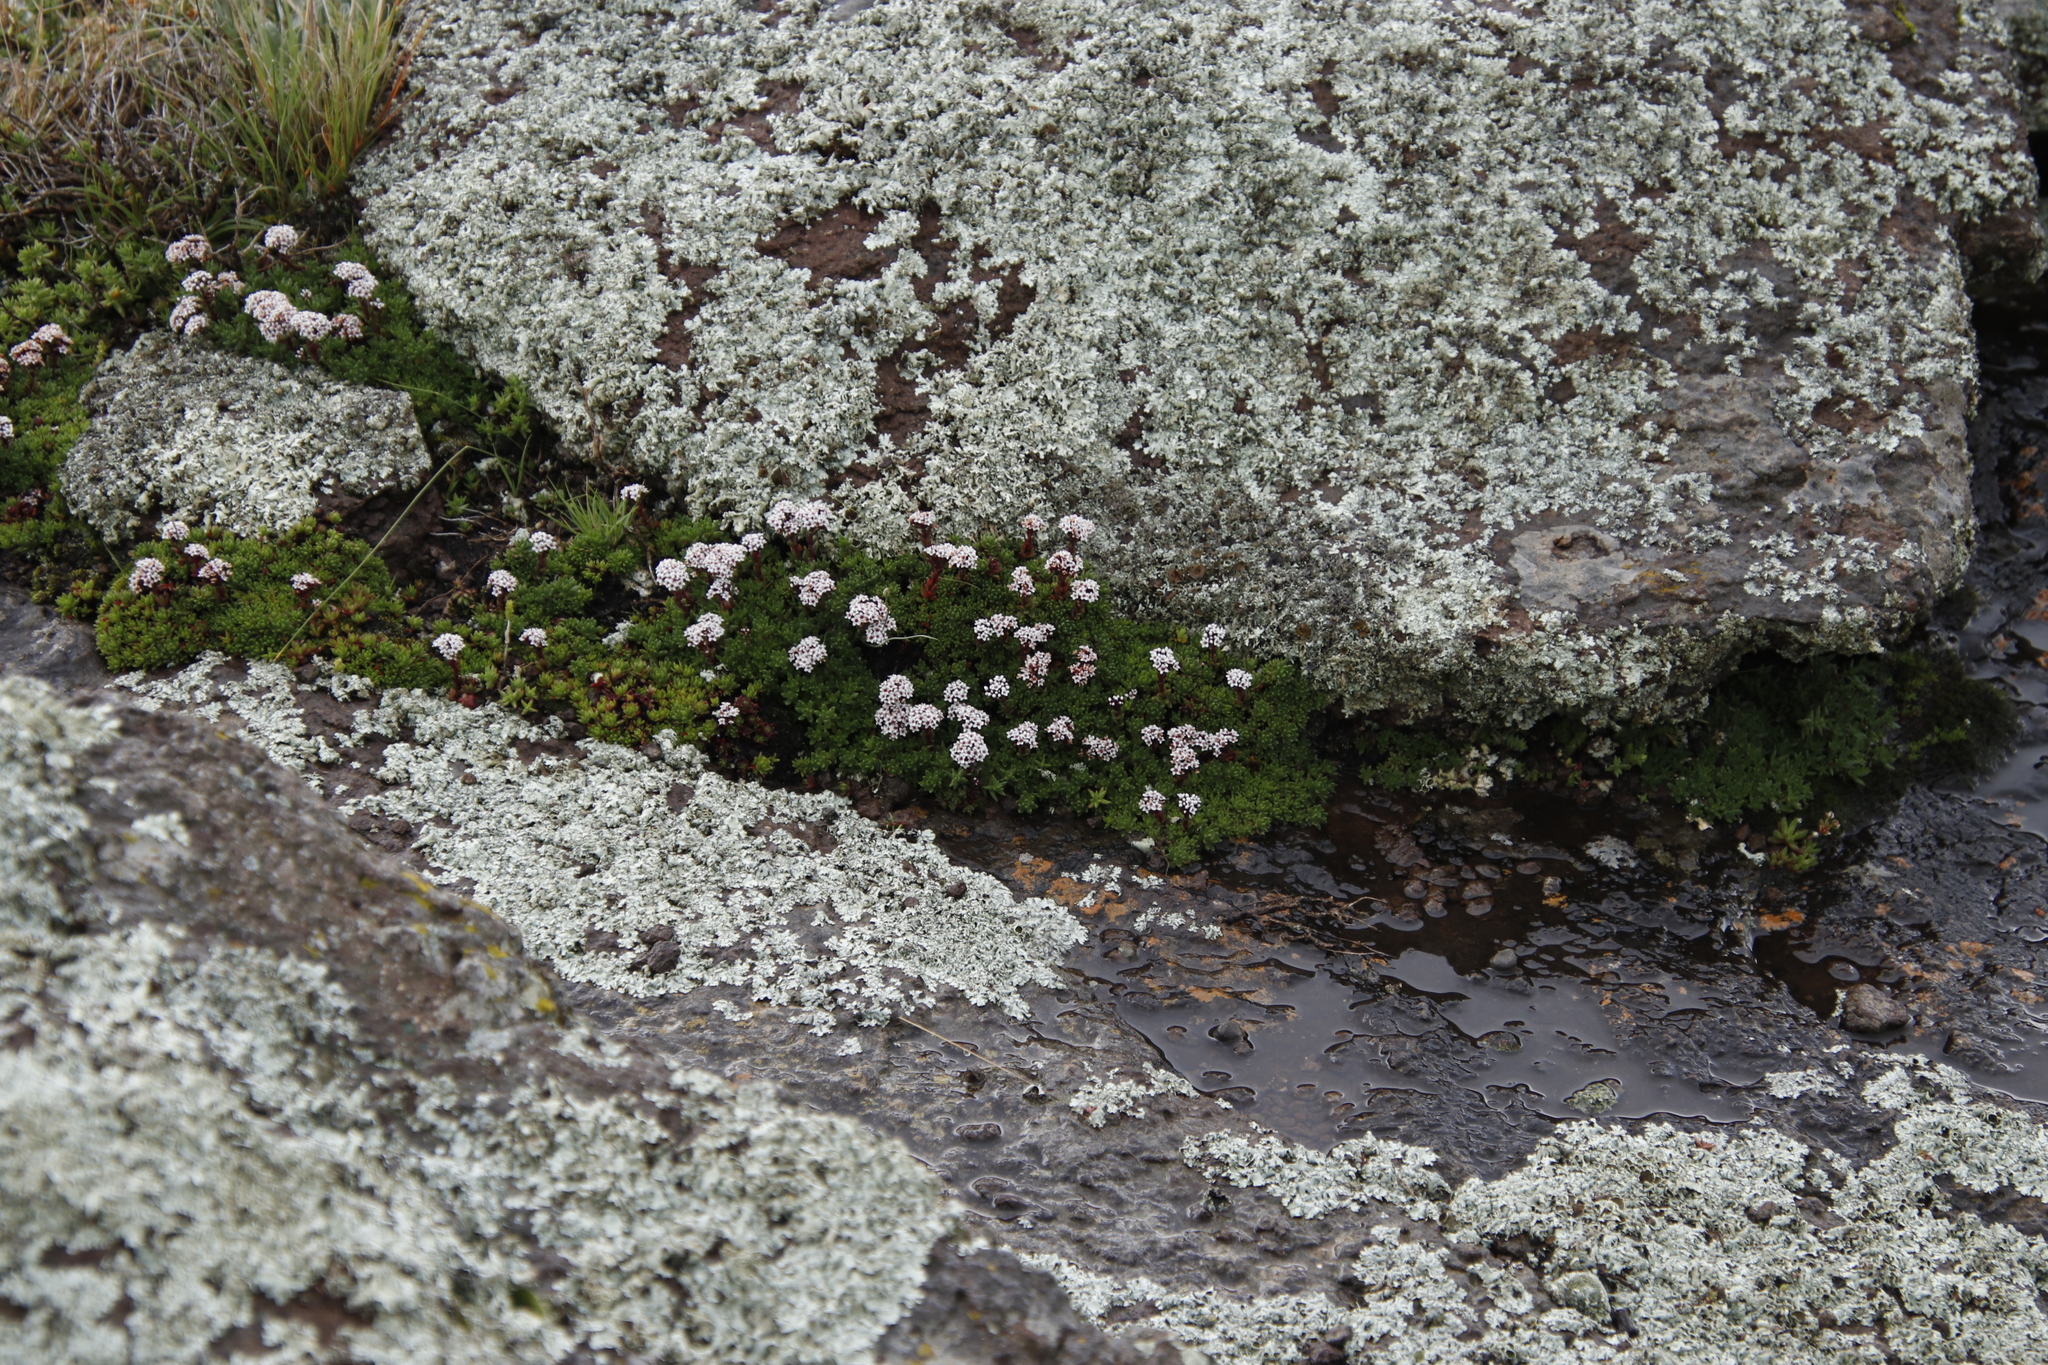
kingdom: Plantae
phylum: Tracheophyta
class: Magnoliopsida
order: Saxifragales
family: Crassulaceae
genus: Crassula
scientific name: Crassula setulosa
